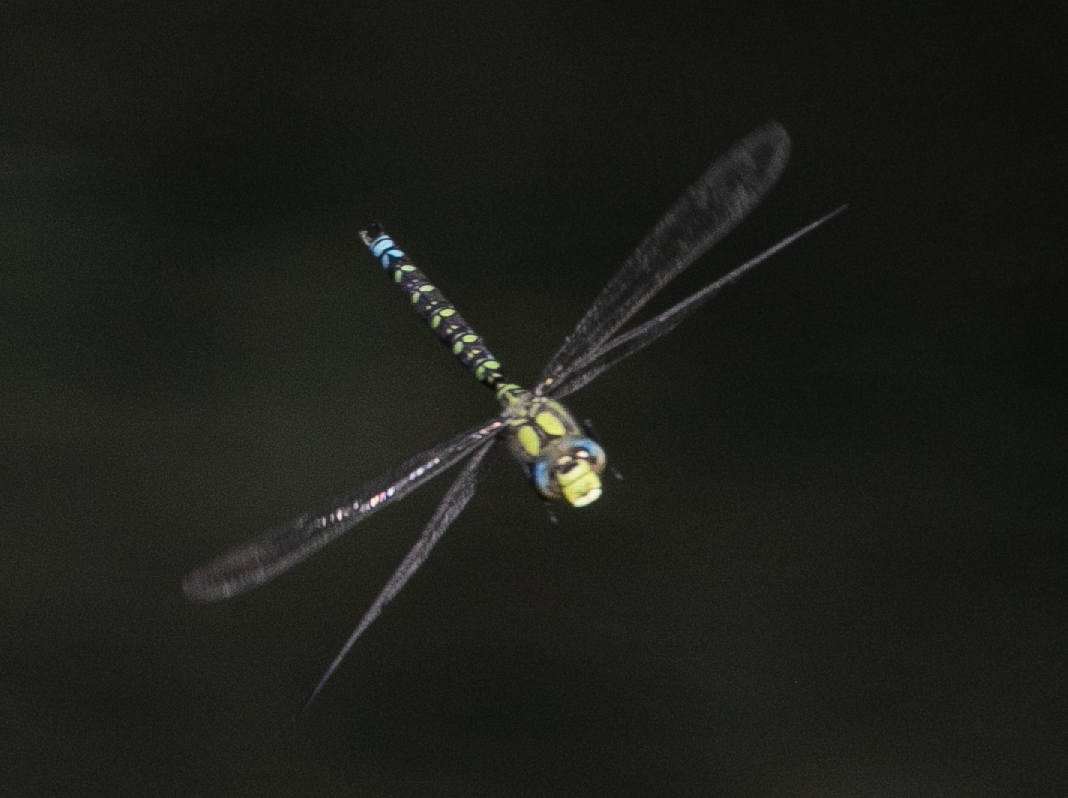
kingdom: Animalia
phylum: Arthropoda
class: Insecta
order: Odonata
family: Aeshnidae
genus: Aeshna
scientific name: Aeshna cyanea
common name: Southern hawker
